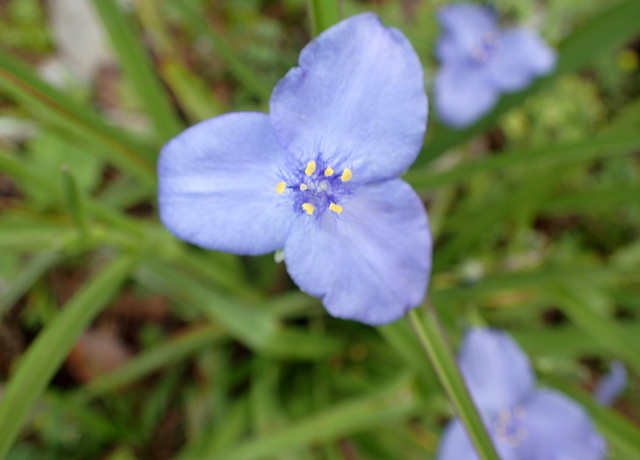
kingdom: Plantae
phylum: Tracheophyta
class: Liliopsida
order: Commelinales
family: Commelinaceae
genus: Tradescantia
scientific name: Tradescantia ohiensis
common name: Ohio spiderwort
